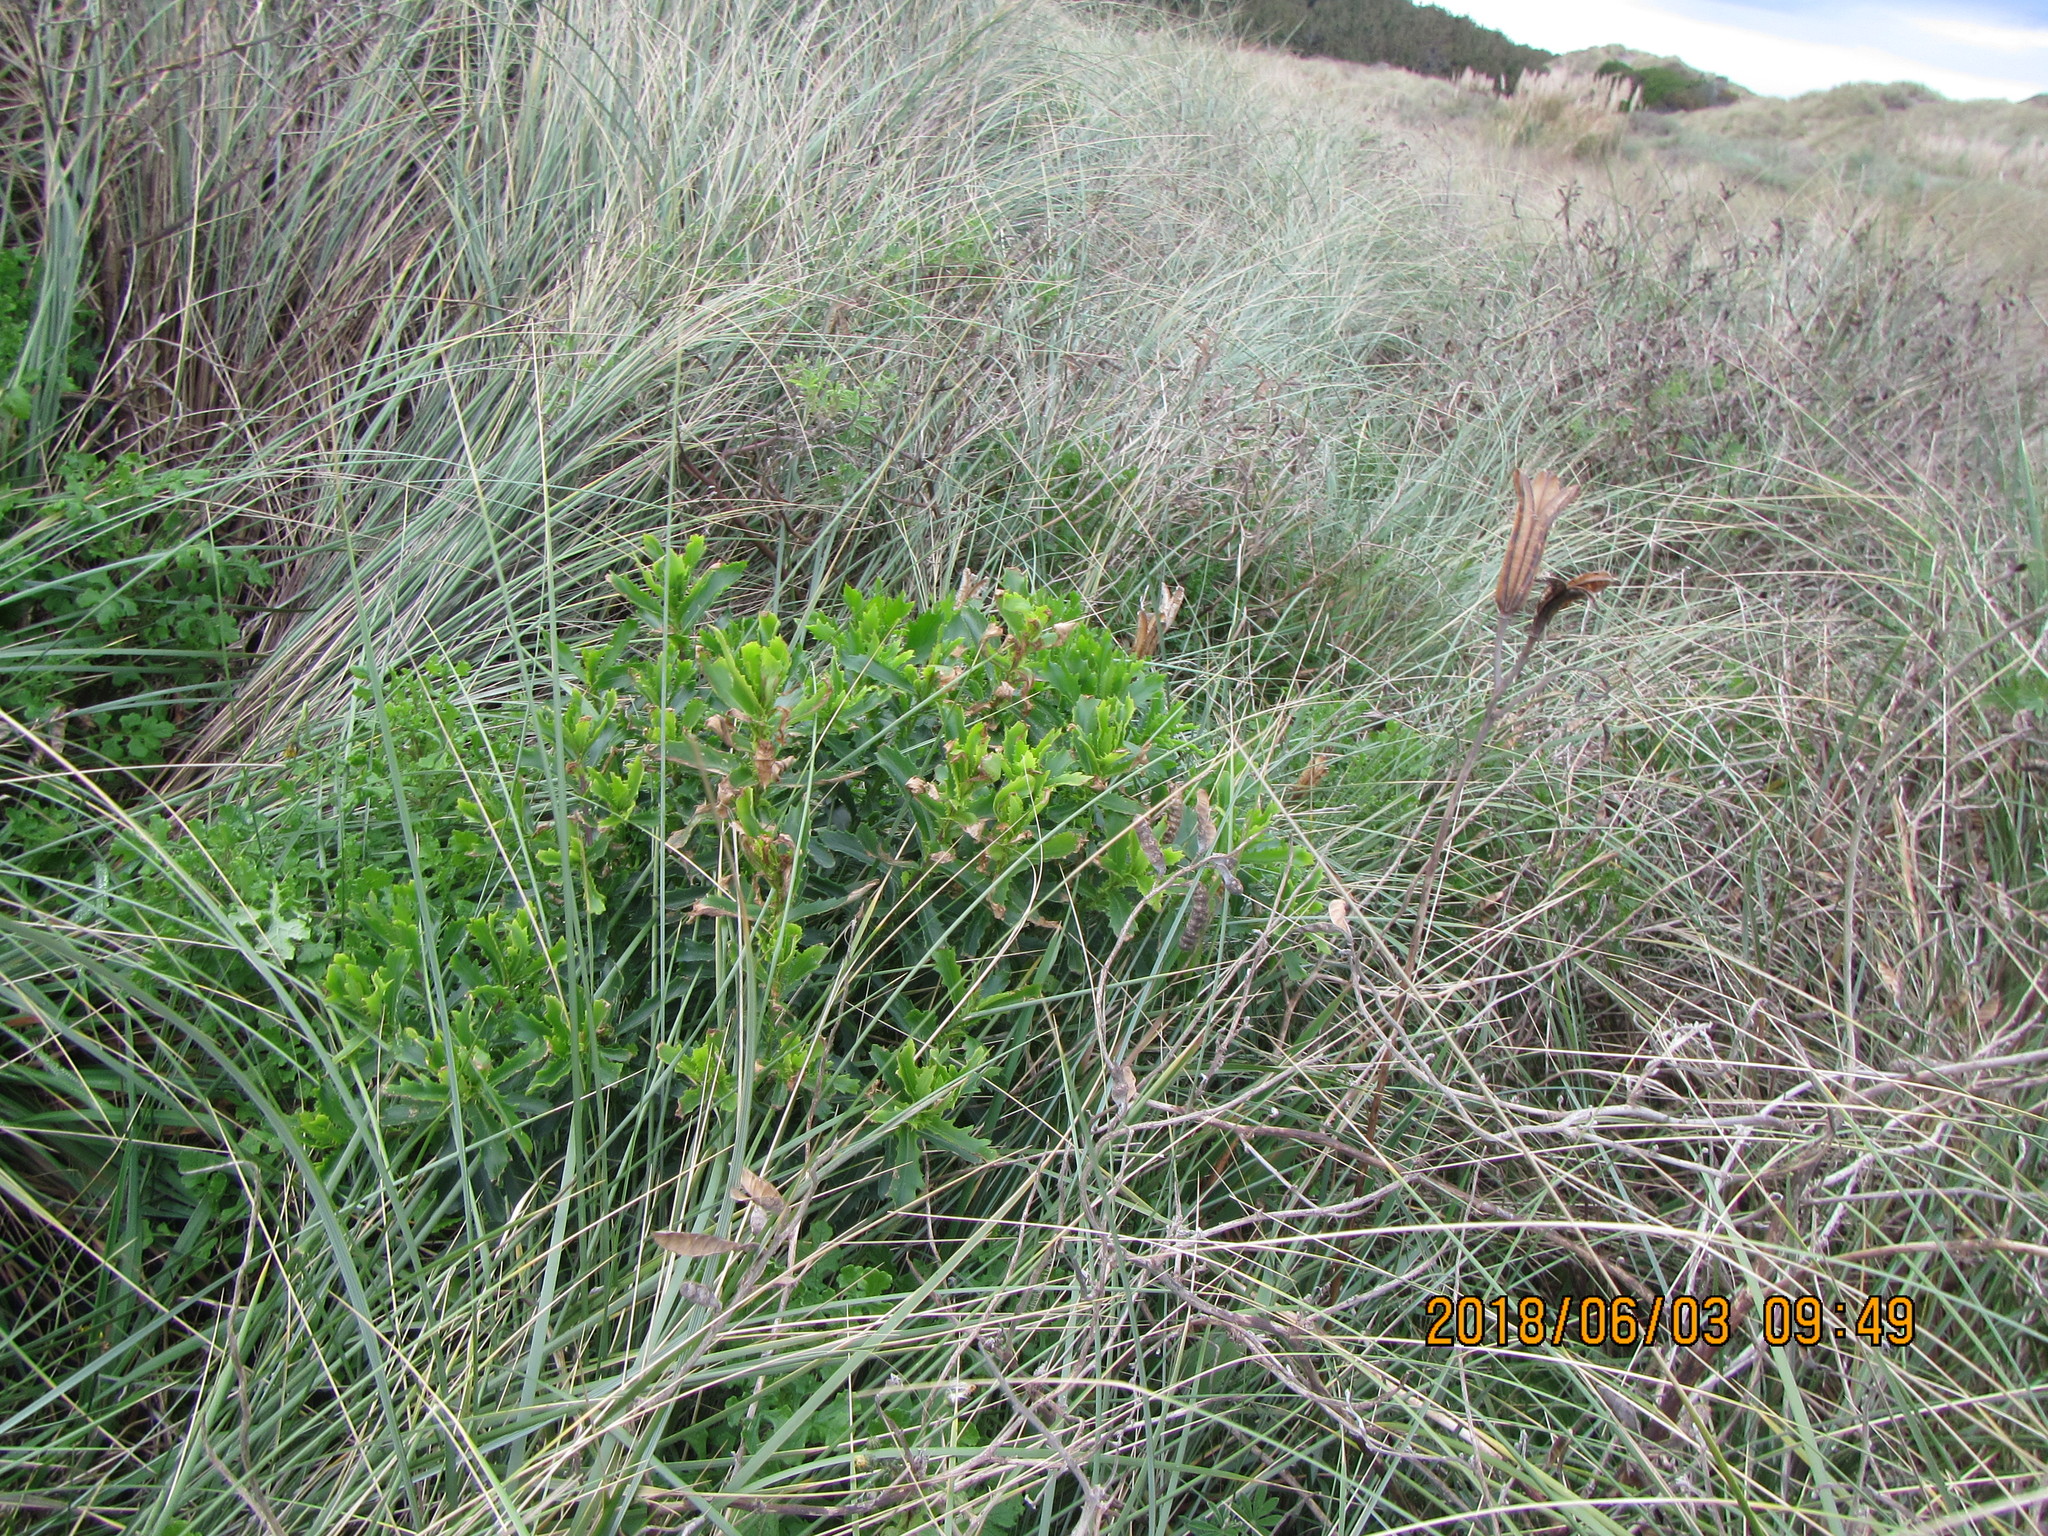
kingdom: Plantae
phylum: Tracheophyta
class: Magnoliopsida
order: Asterales
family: Asteraceae
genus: Senecio
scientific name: Senecio glastifolius
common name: Woad-leaved ragwort
